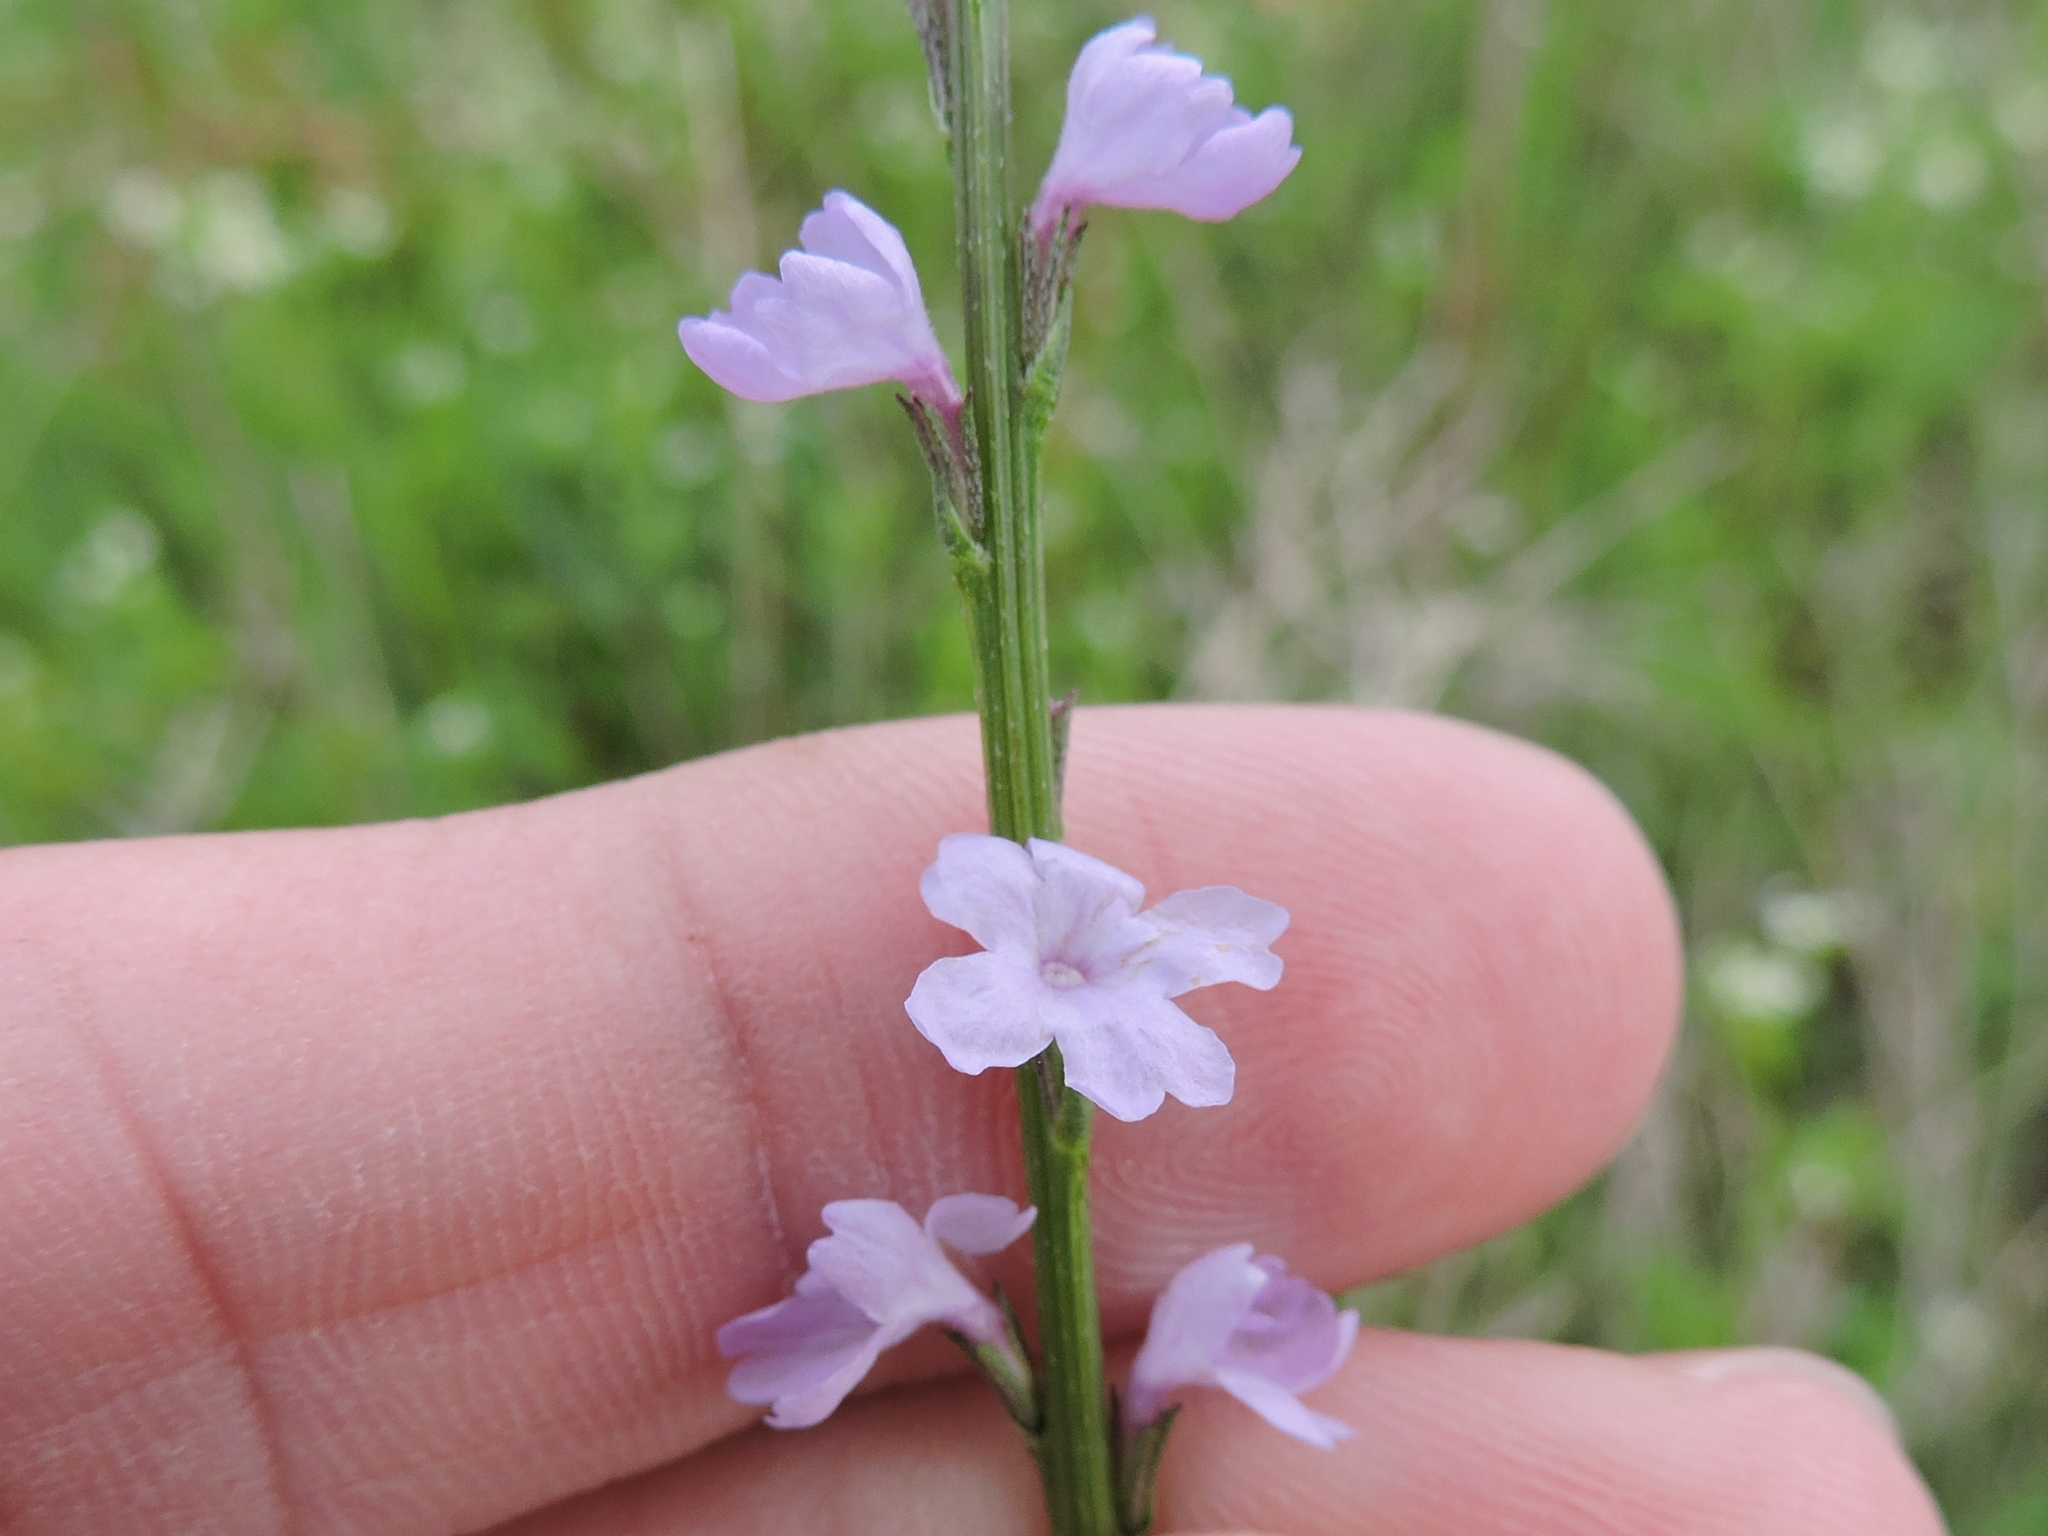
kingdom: Plantae
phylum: Tracheophyta
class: Magnoliopsida
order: Lamiales
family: Verbenaceae
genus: Verbena
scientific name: Verbena halei
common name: Texas vervain
